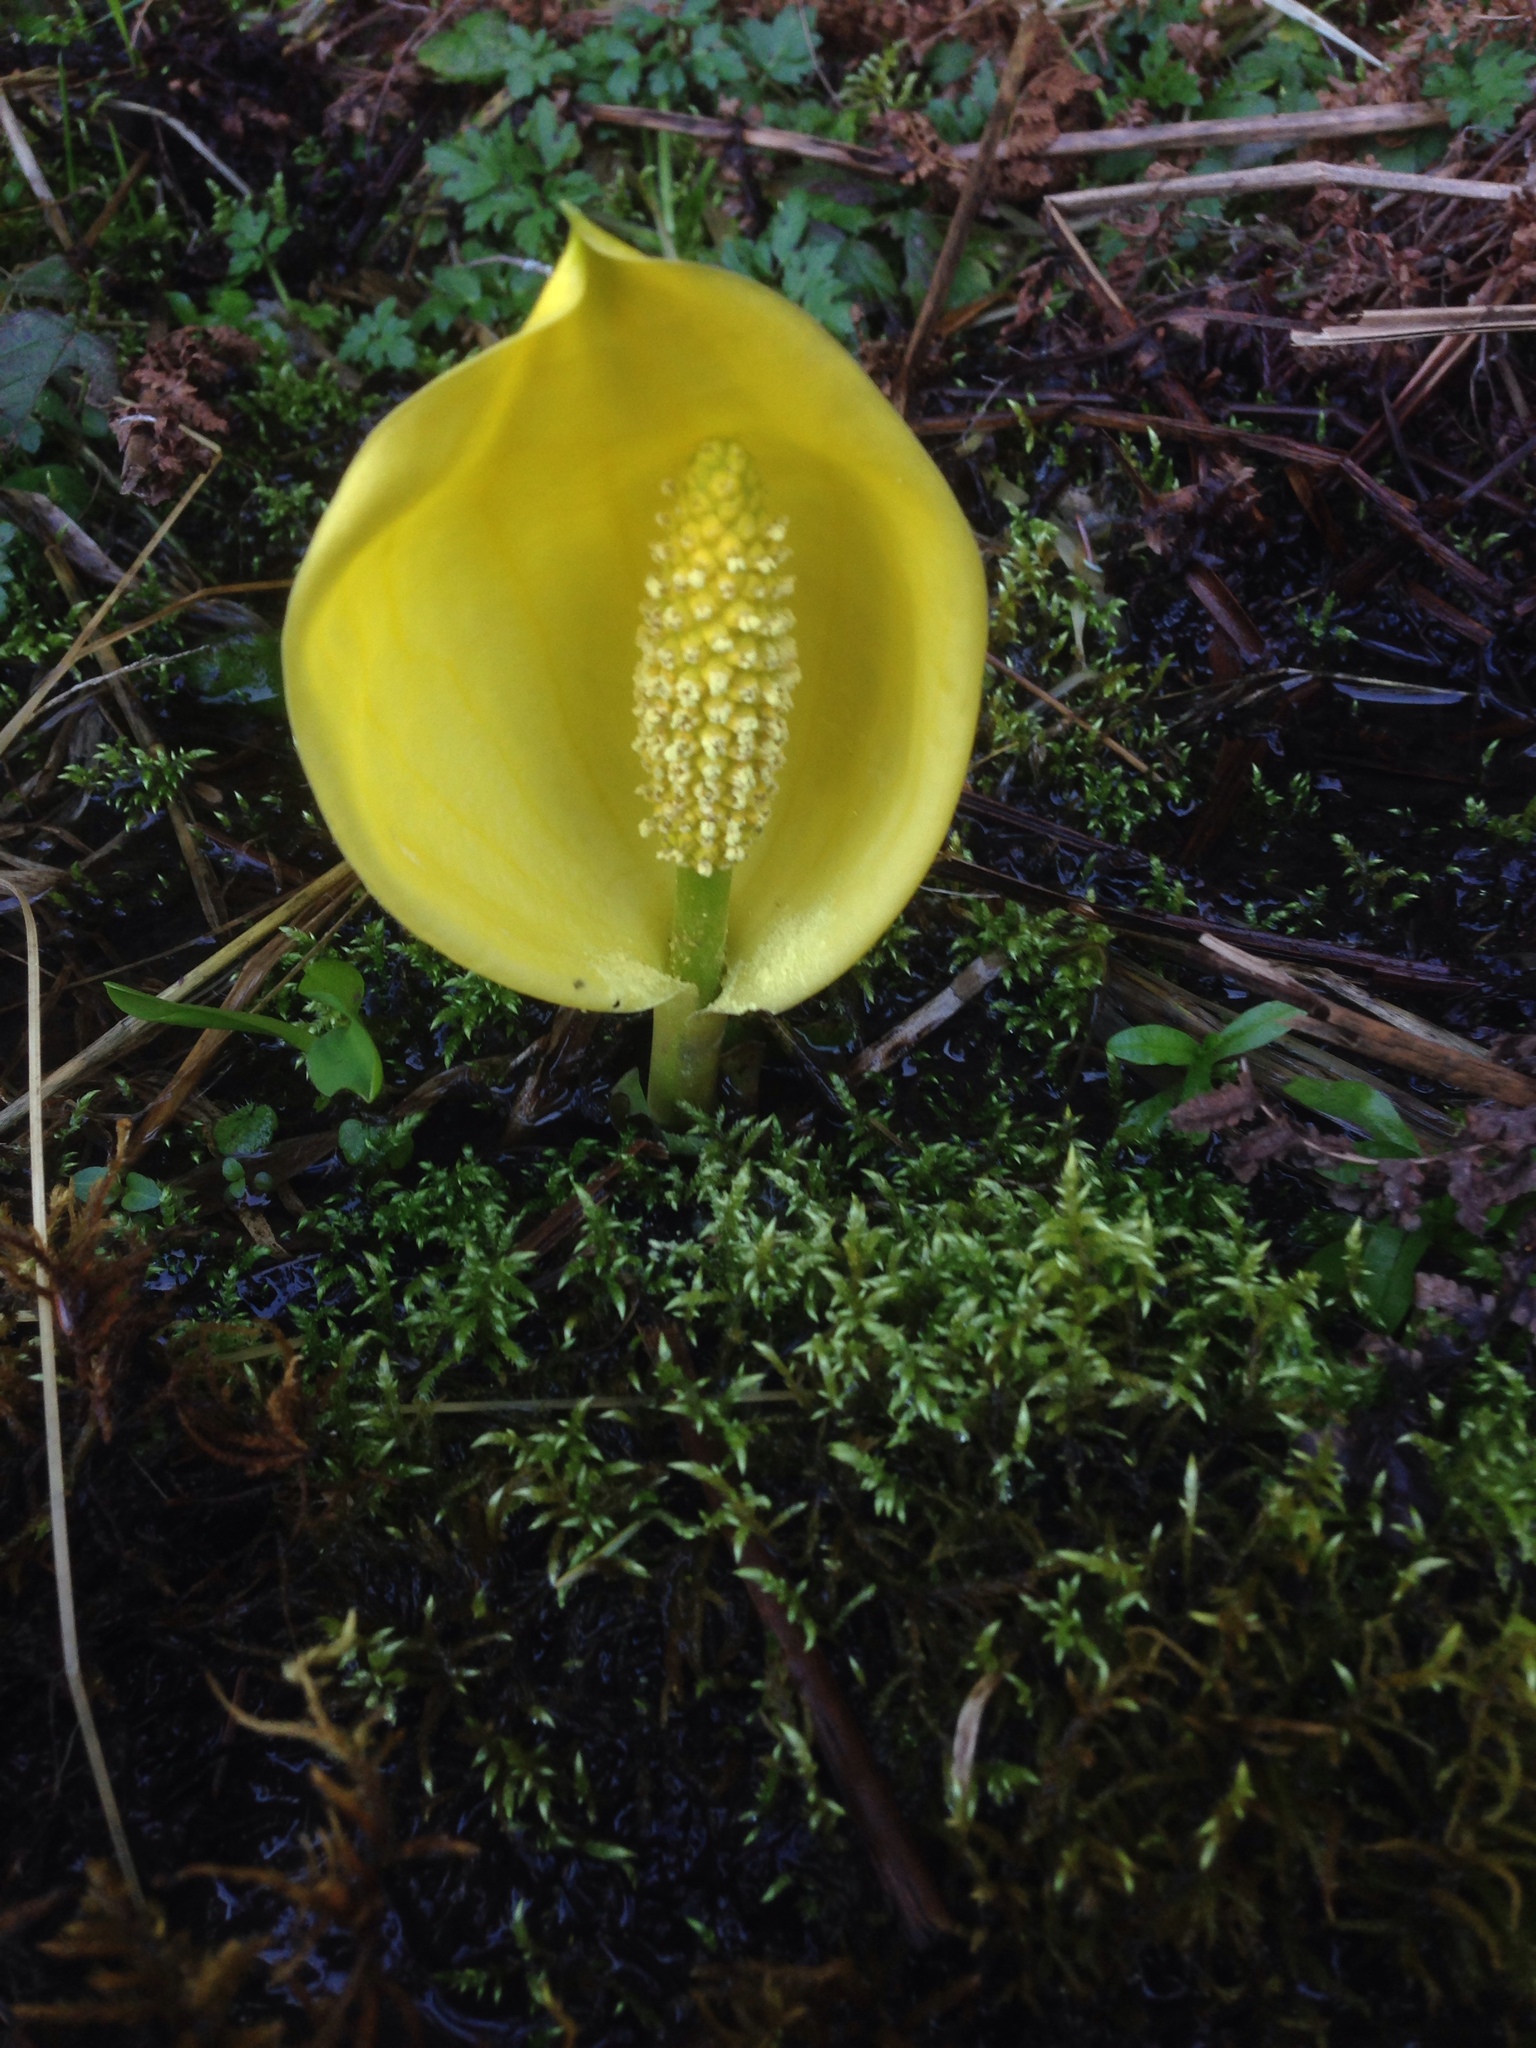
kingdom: Plantae
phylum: Tracheophyta
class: Liliopsida
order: Alismatales
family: Araceae
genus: Lysichiton
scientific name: Lysichiton americanus
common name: American skunk cabbage
